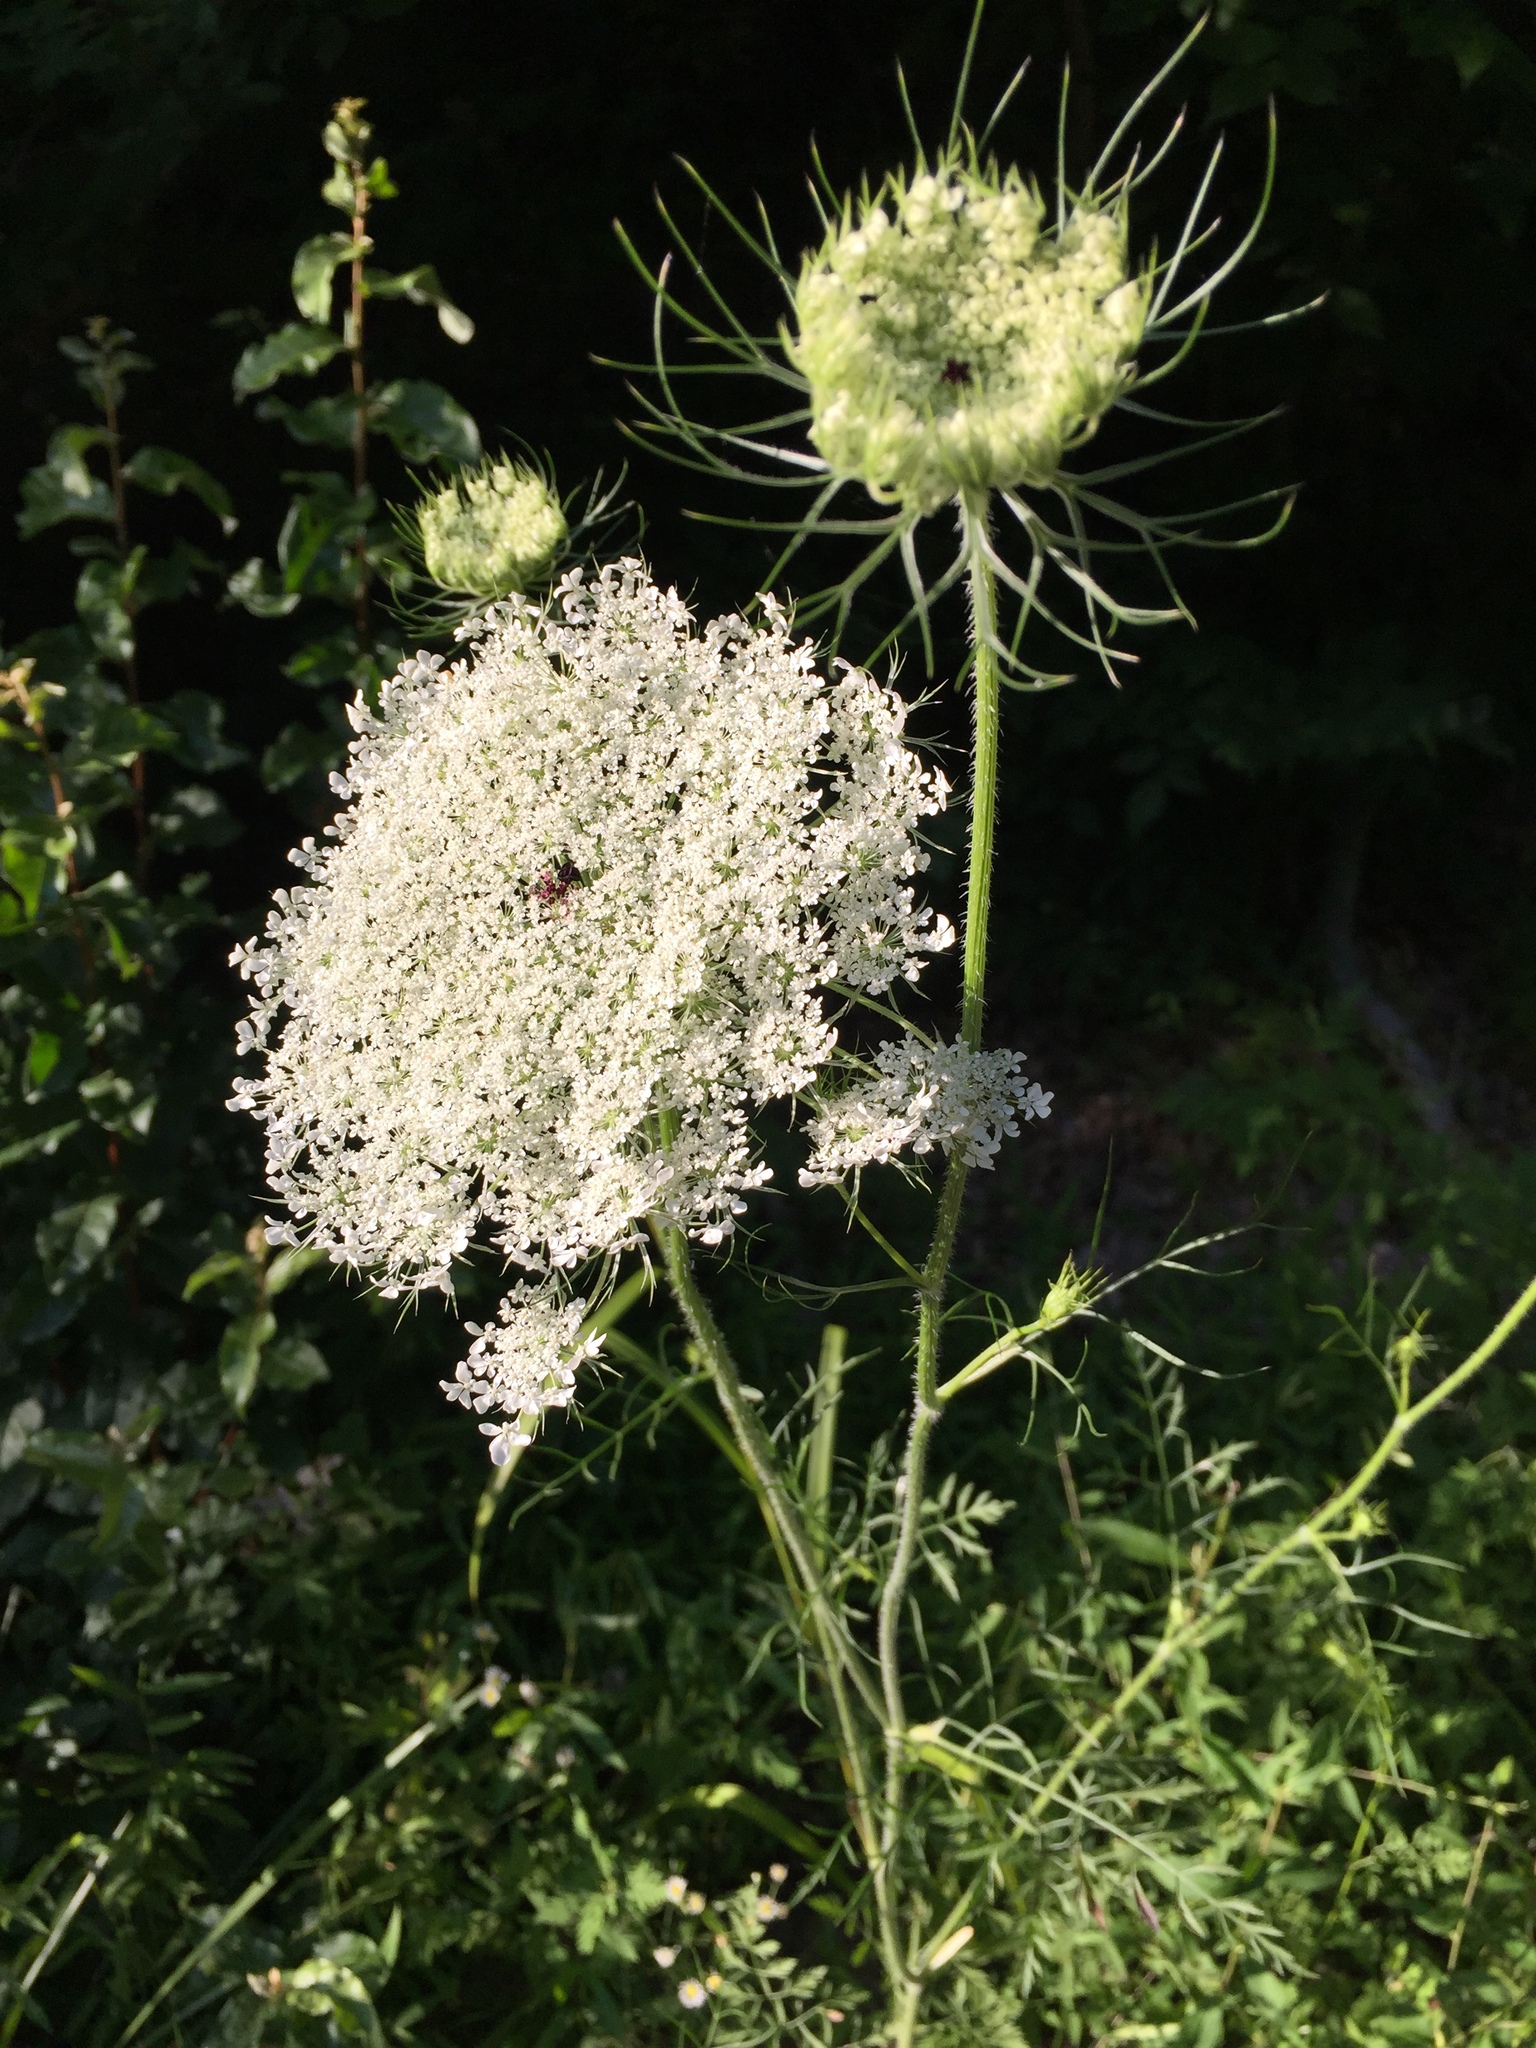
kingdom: Plantae
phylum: Tracheophyta
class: Magnoliopsida
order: Apiales
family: Apiaceae
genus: Daucus
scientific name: Daucus carota
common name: Wild carrot
